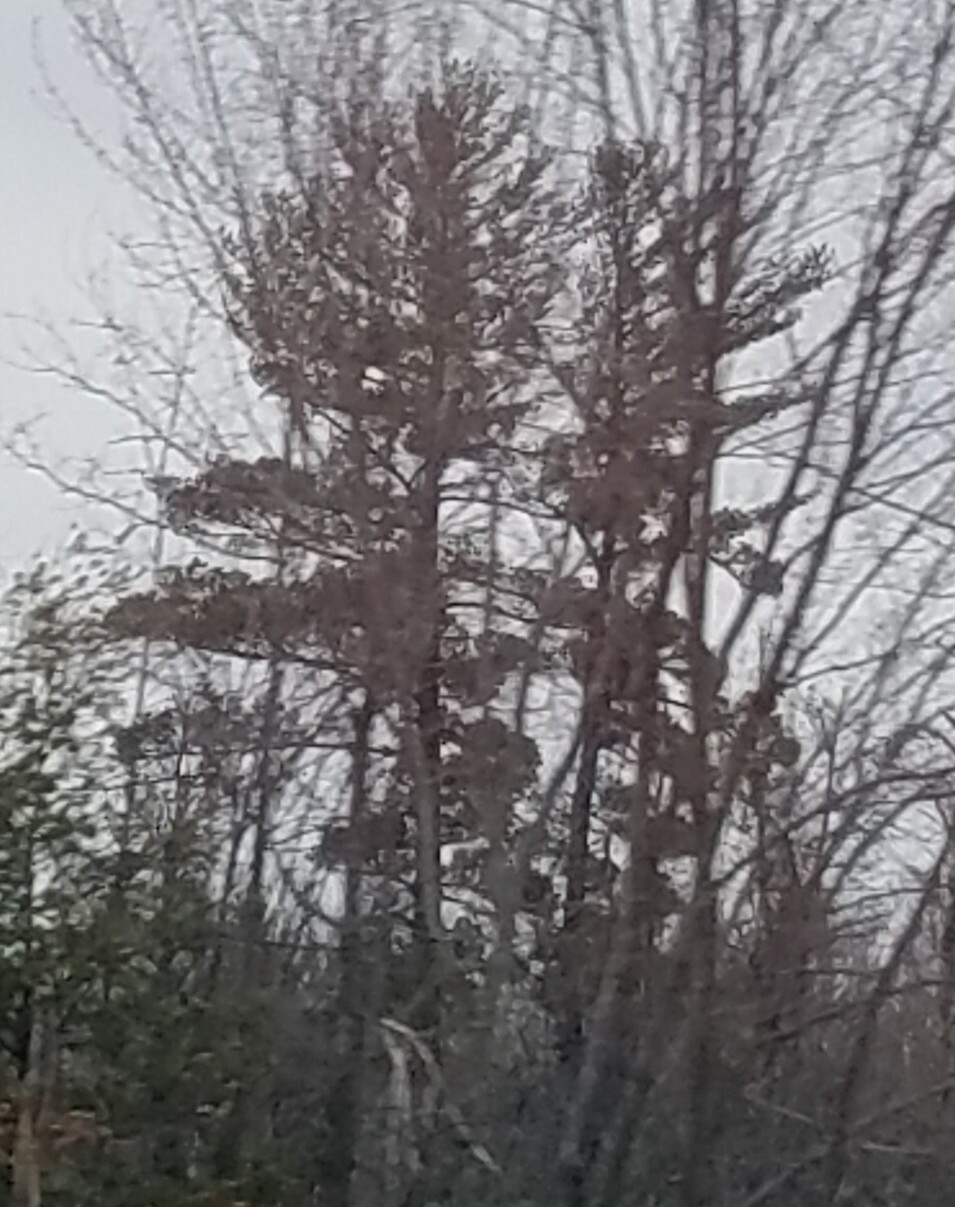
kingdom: Plantae
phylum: Tracheophyta
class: Pinopsida
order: Pinales
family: Pinaceae
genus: Pinus
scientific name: Pinus strobus
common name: Weymouth pine
